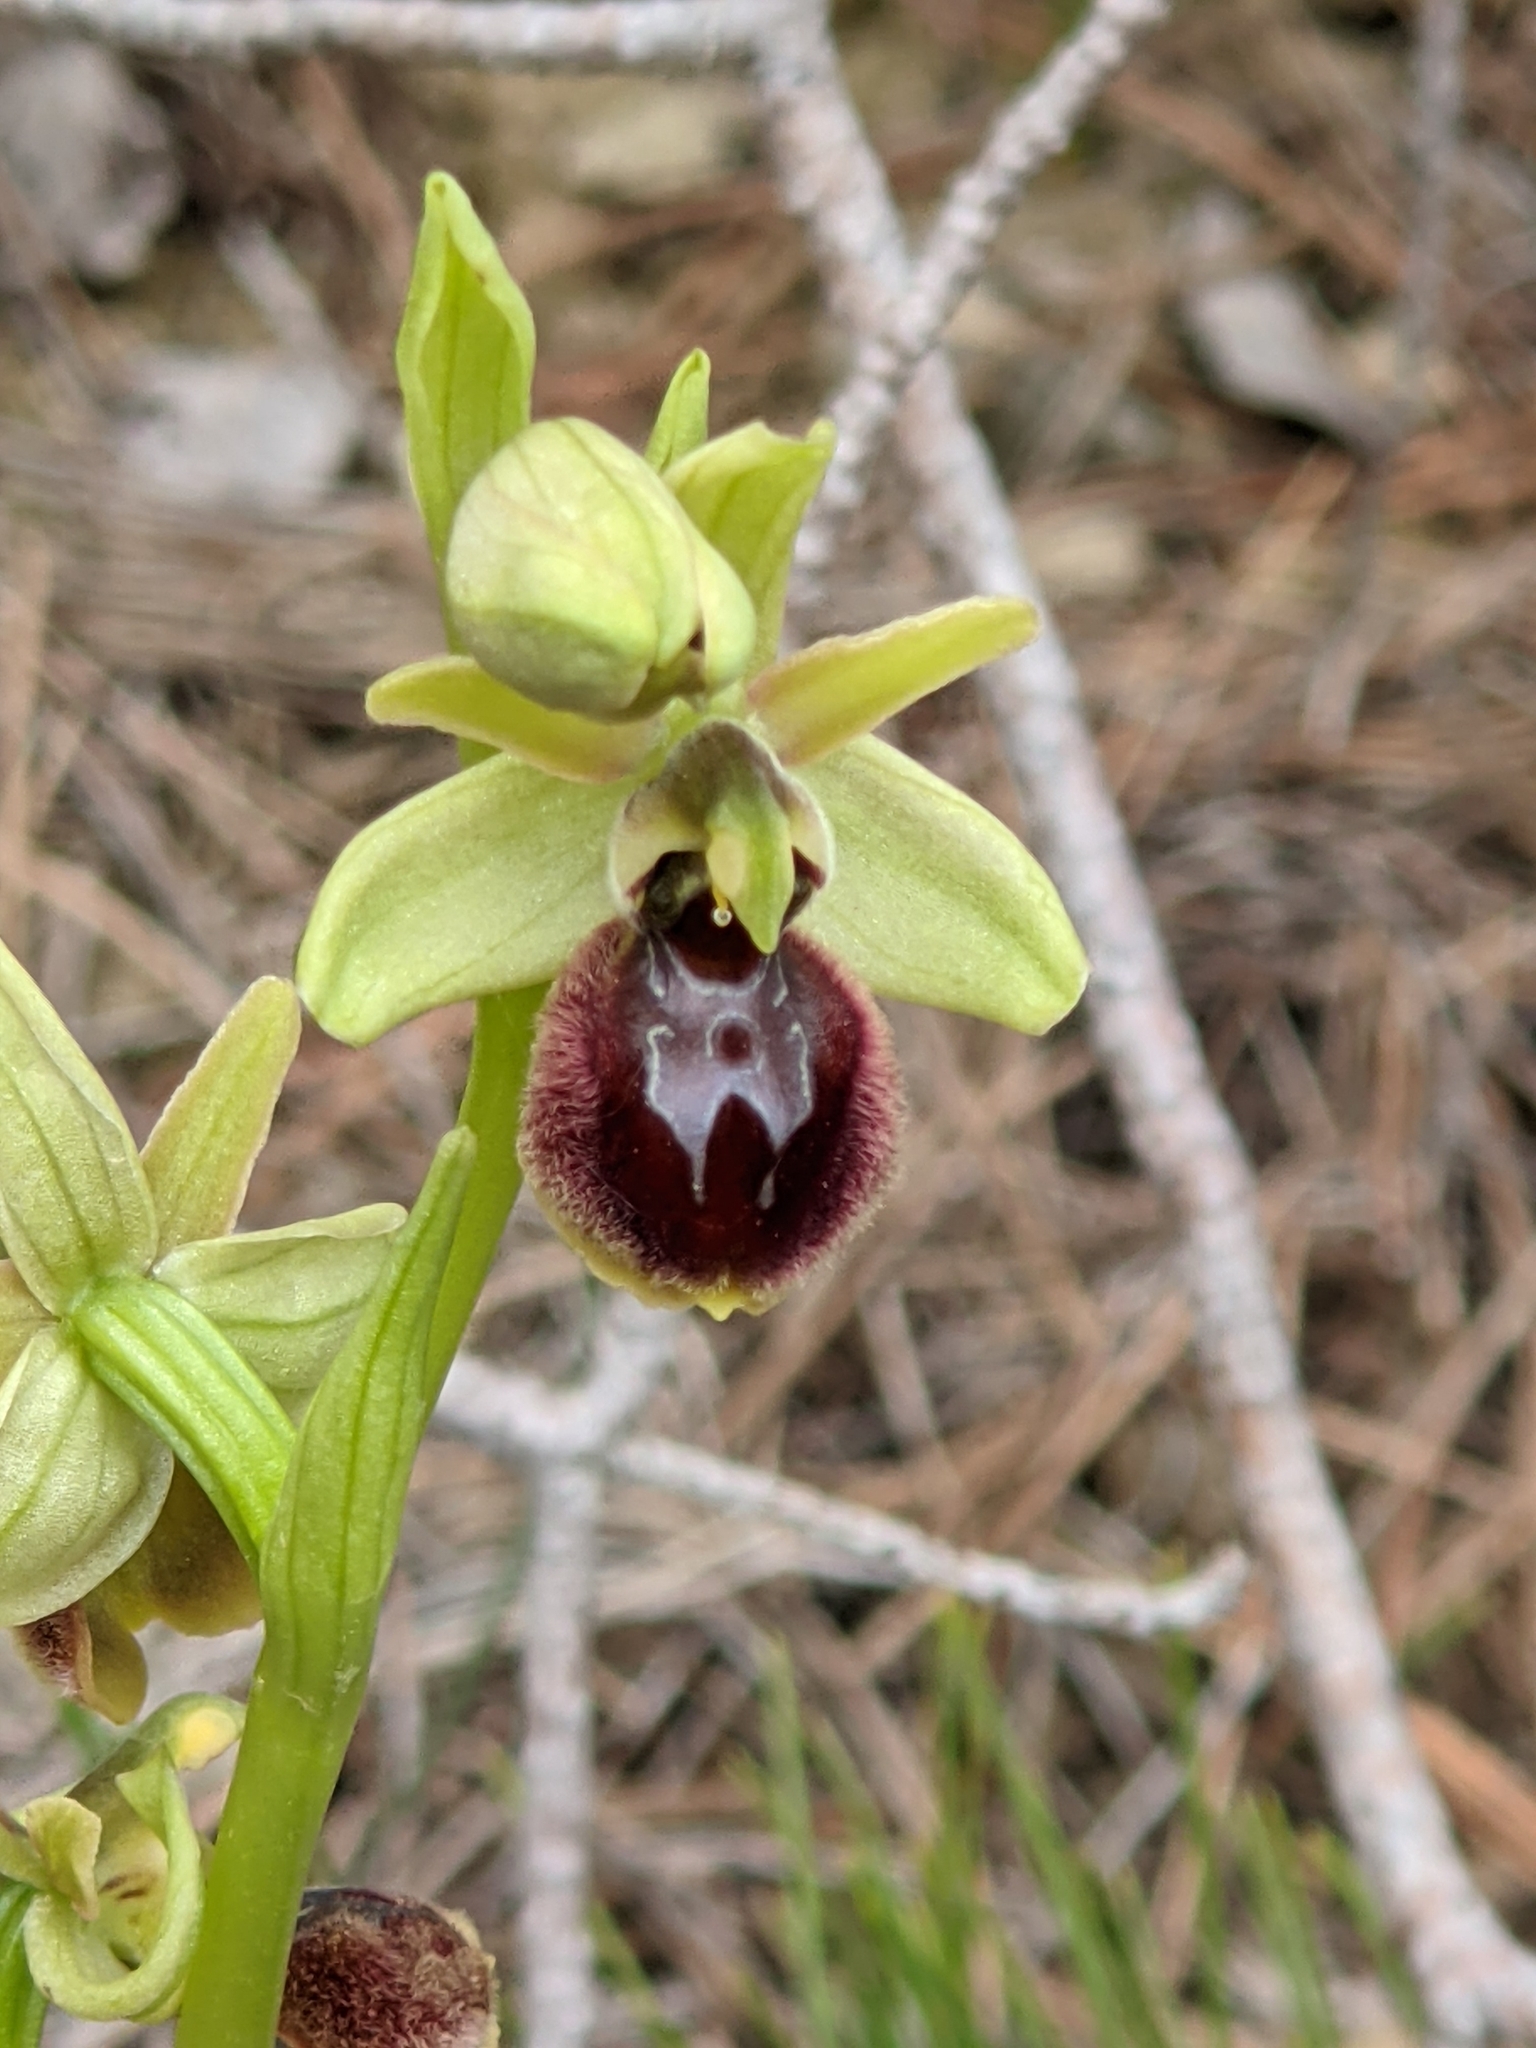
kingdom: Plantae
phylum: Tracheophyta
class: Liliopsida
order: Asparagales
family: Orchidaceae
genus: Ophrys
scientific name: Ophrys sphegodes
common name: Early spider-orchid
